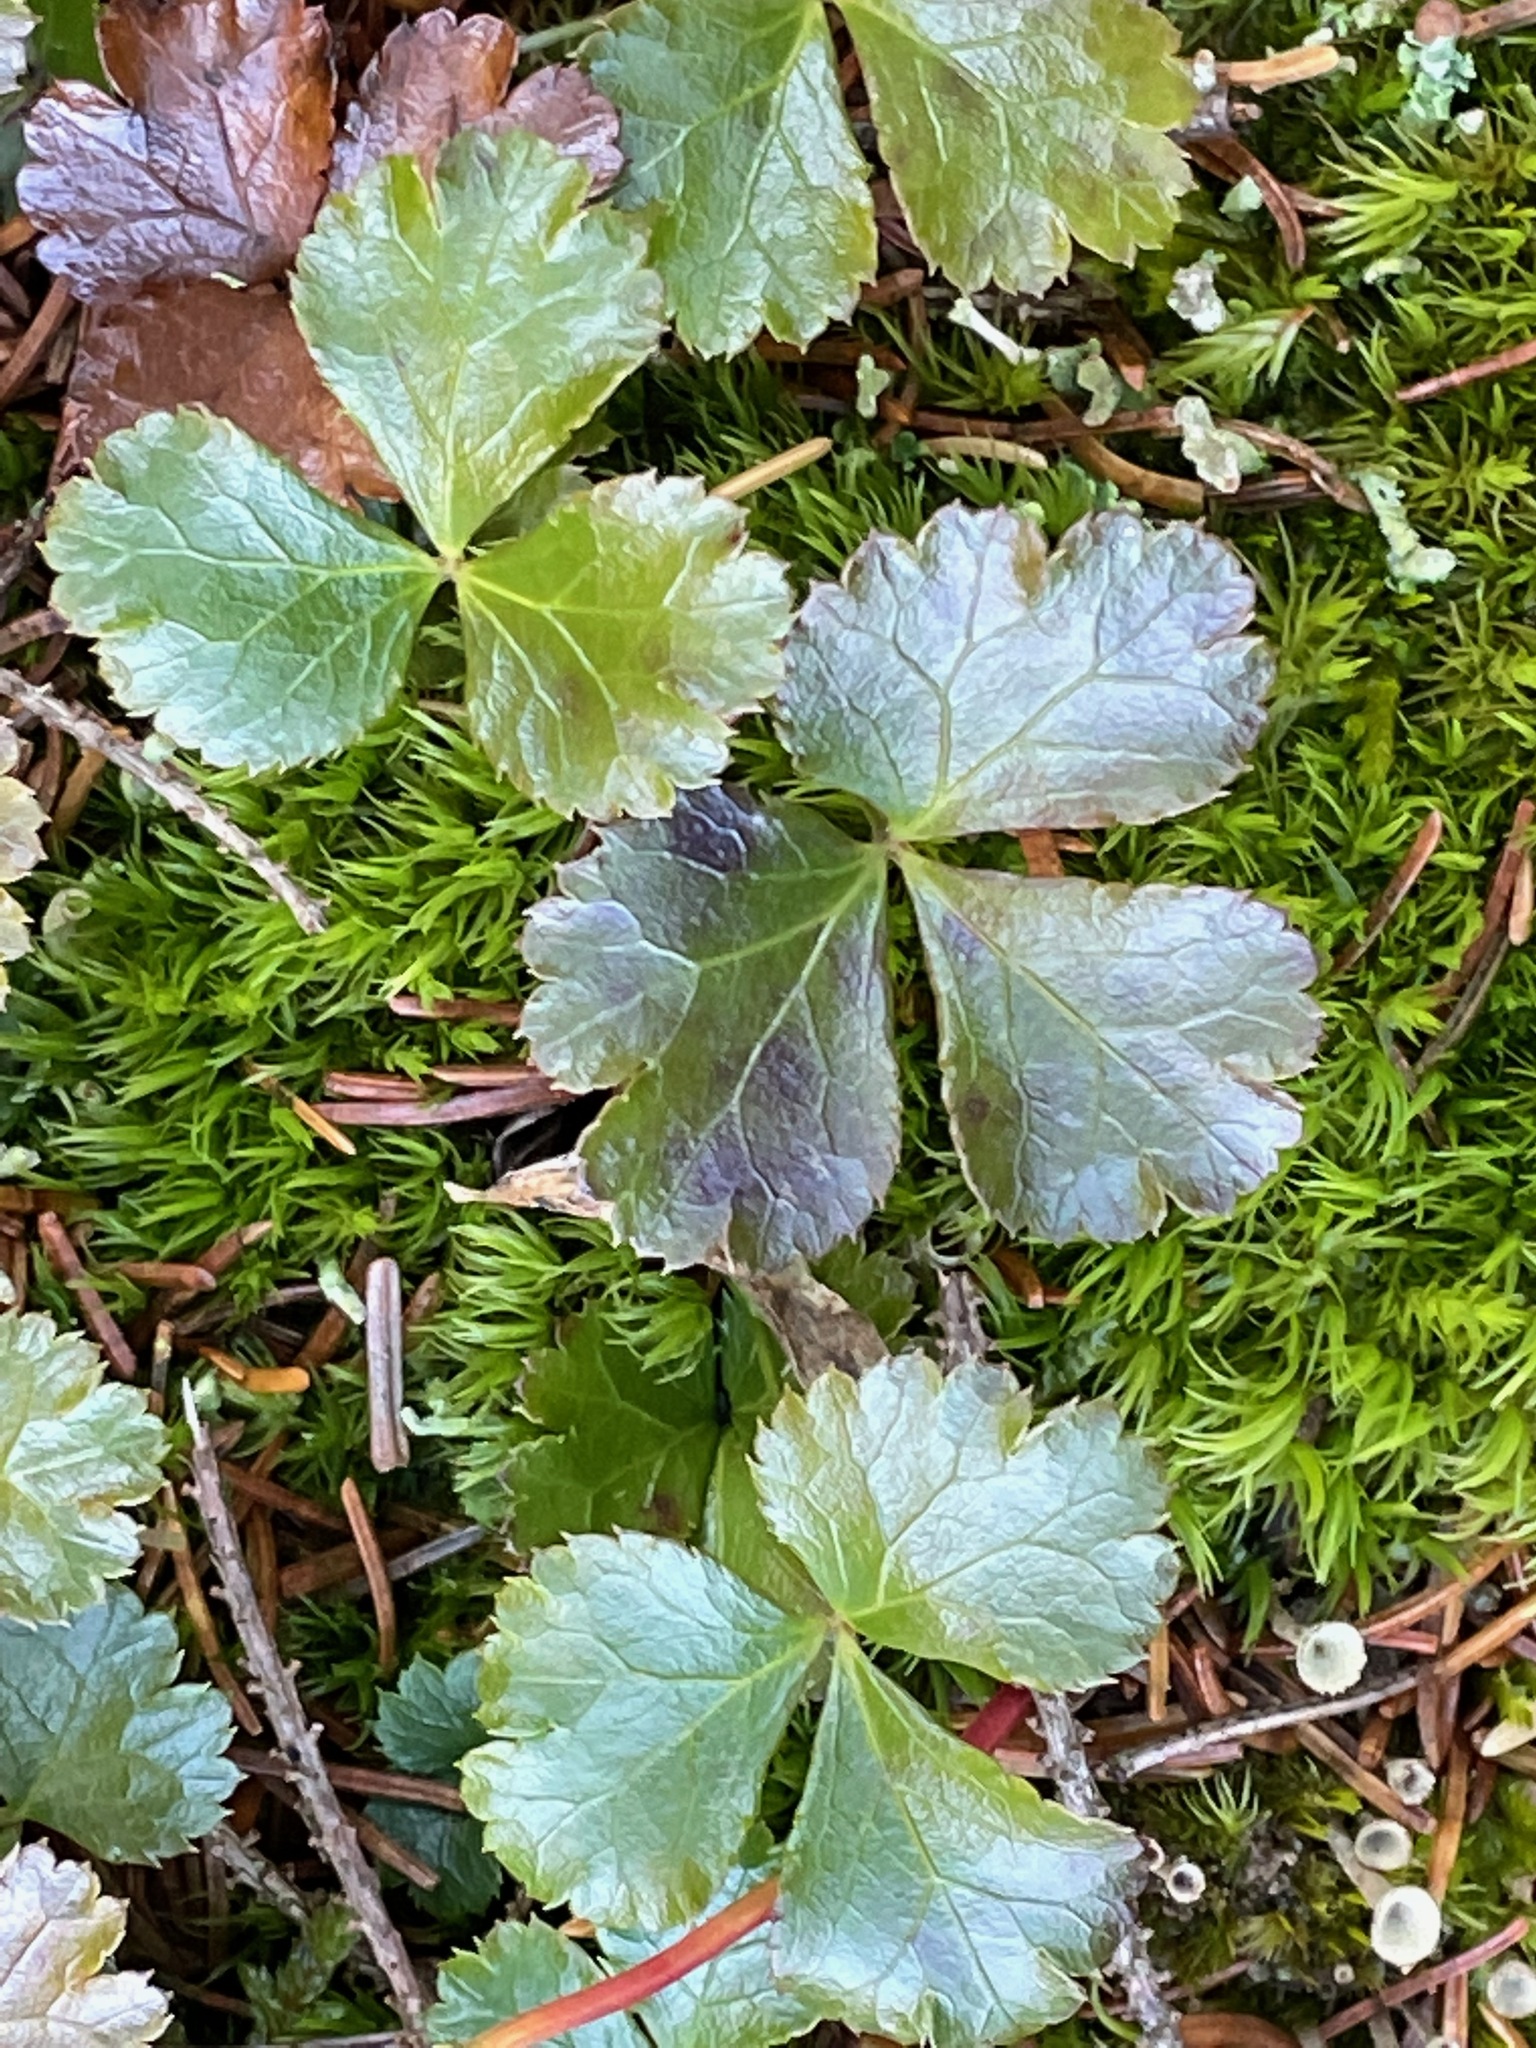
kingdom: Plantae
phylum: Tracheophyta
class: Magnoliopsida
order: Ranunculales
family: Ranunculaceae
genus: Coptis
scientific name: Coptis trifolia
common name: Canker-root
